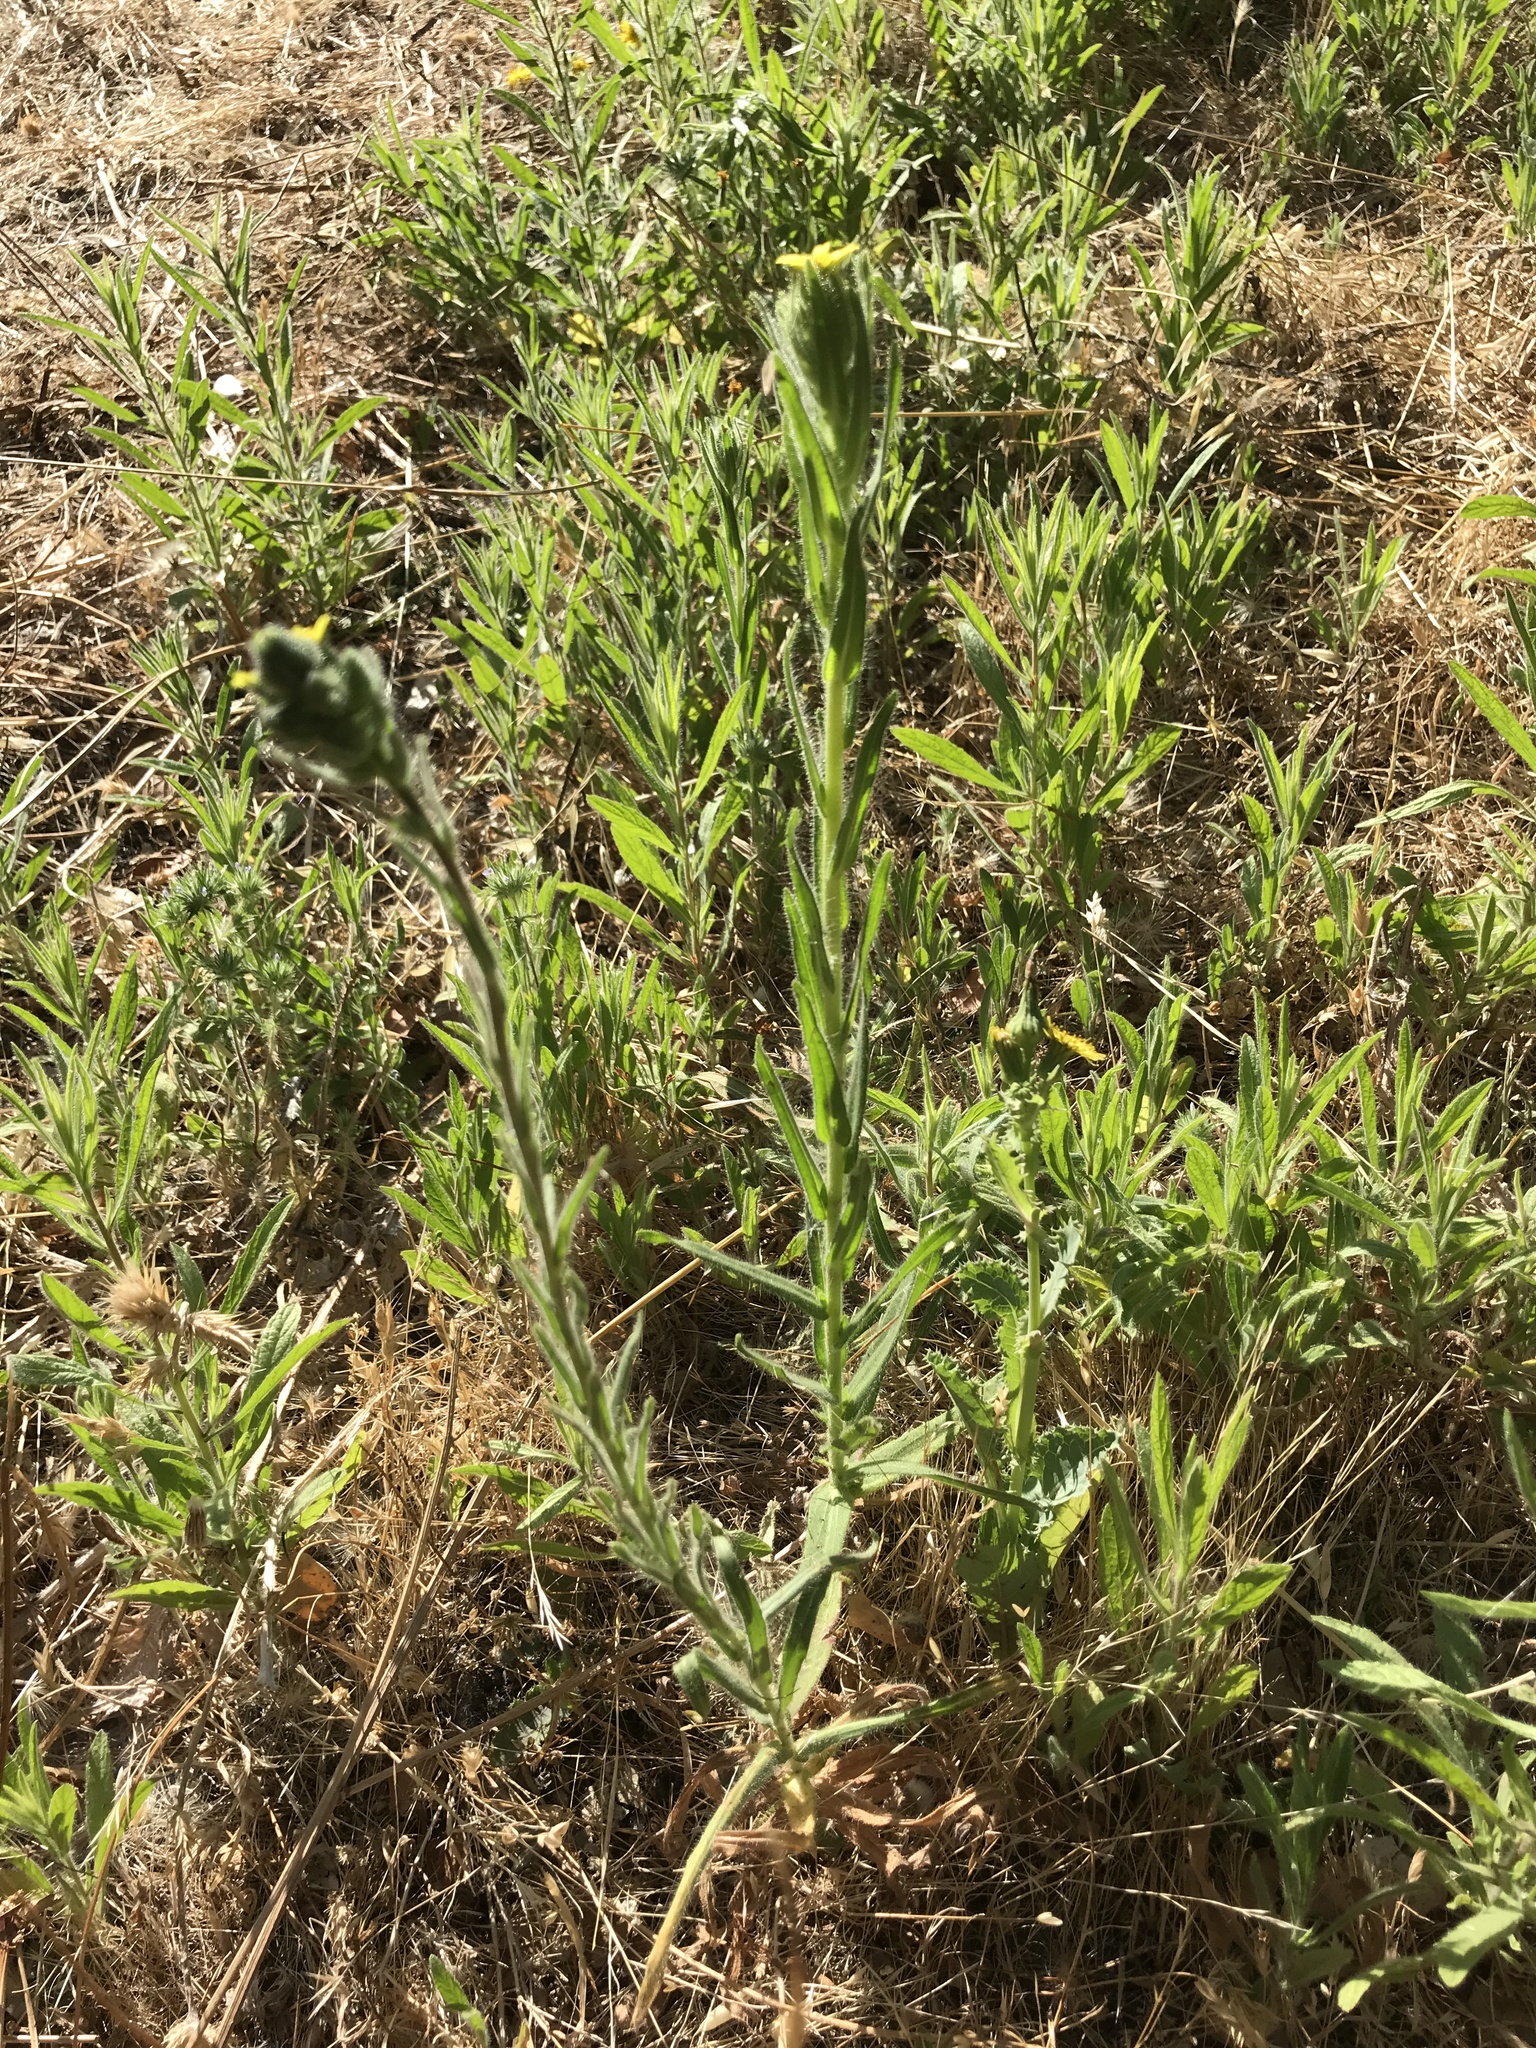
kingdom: Plantae
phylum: Tracheophyta
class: Magnoliopsida
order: Asterales
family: Asteraceae
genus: Madia
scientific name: Madia sativa
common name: Coast tarweed
